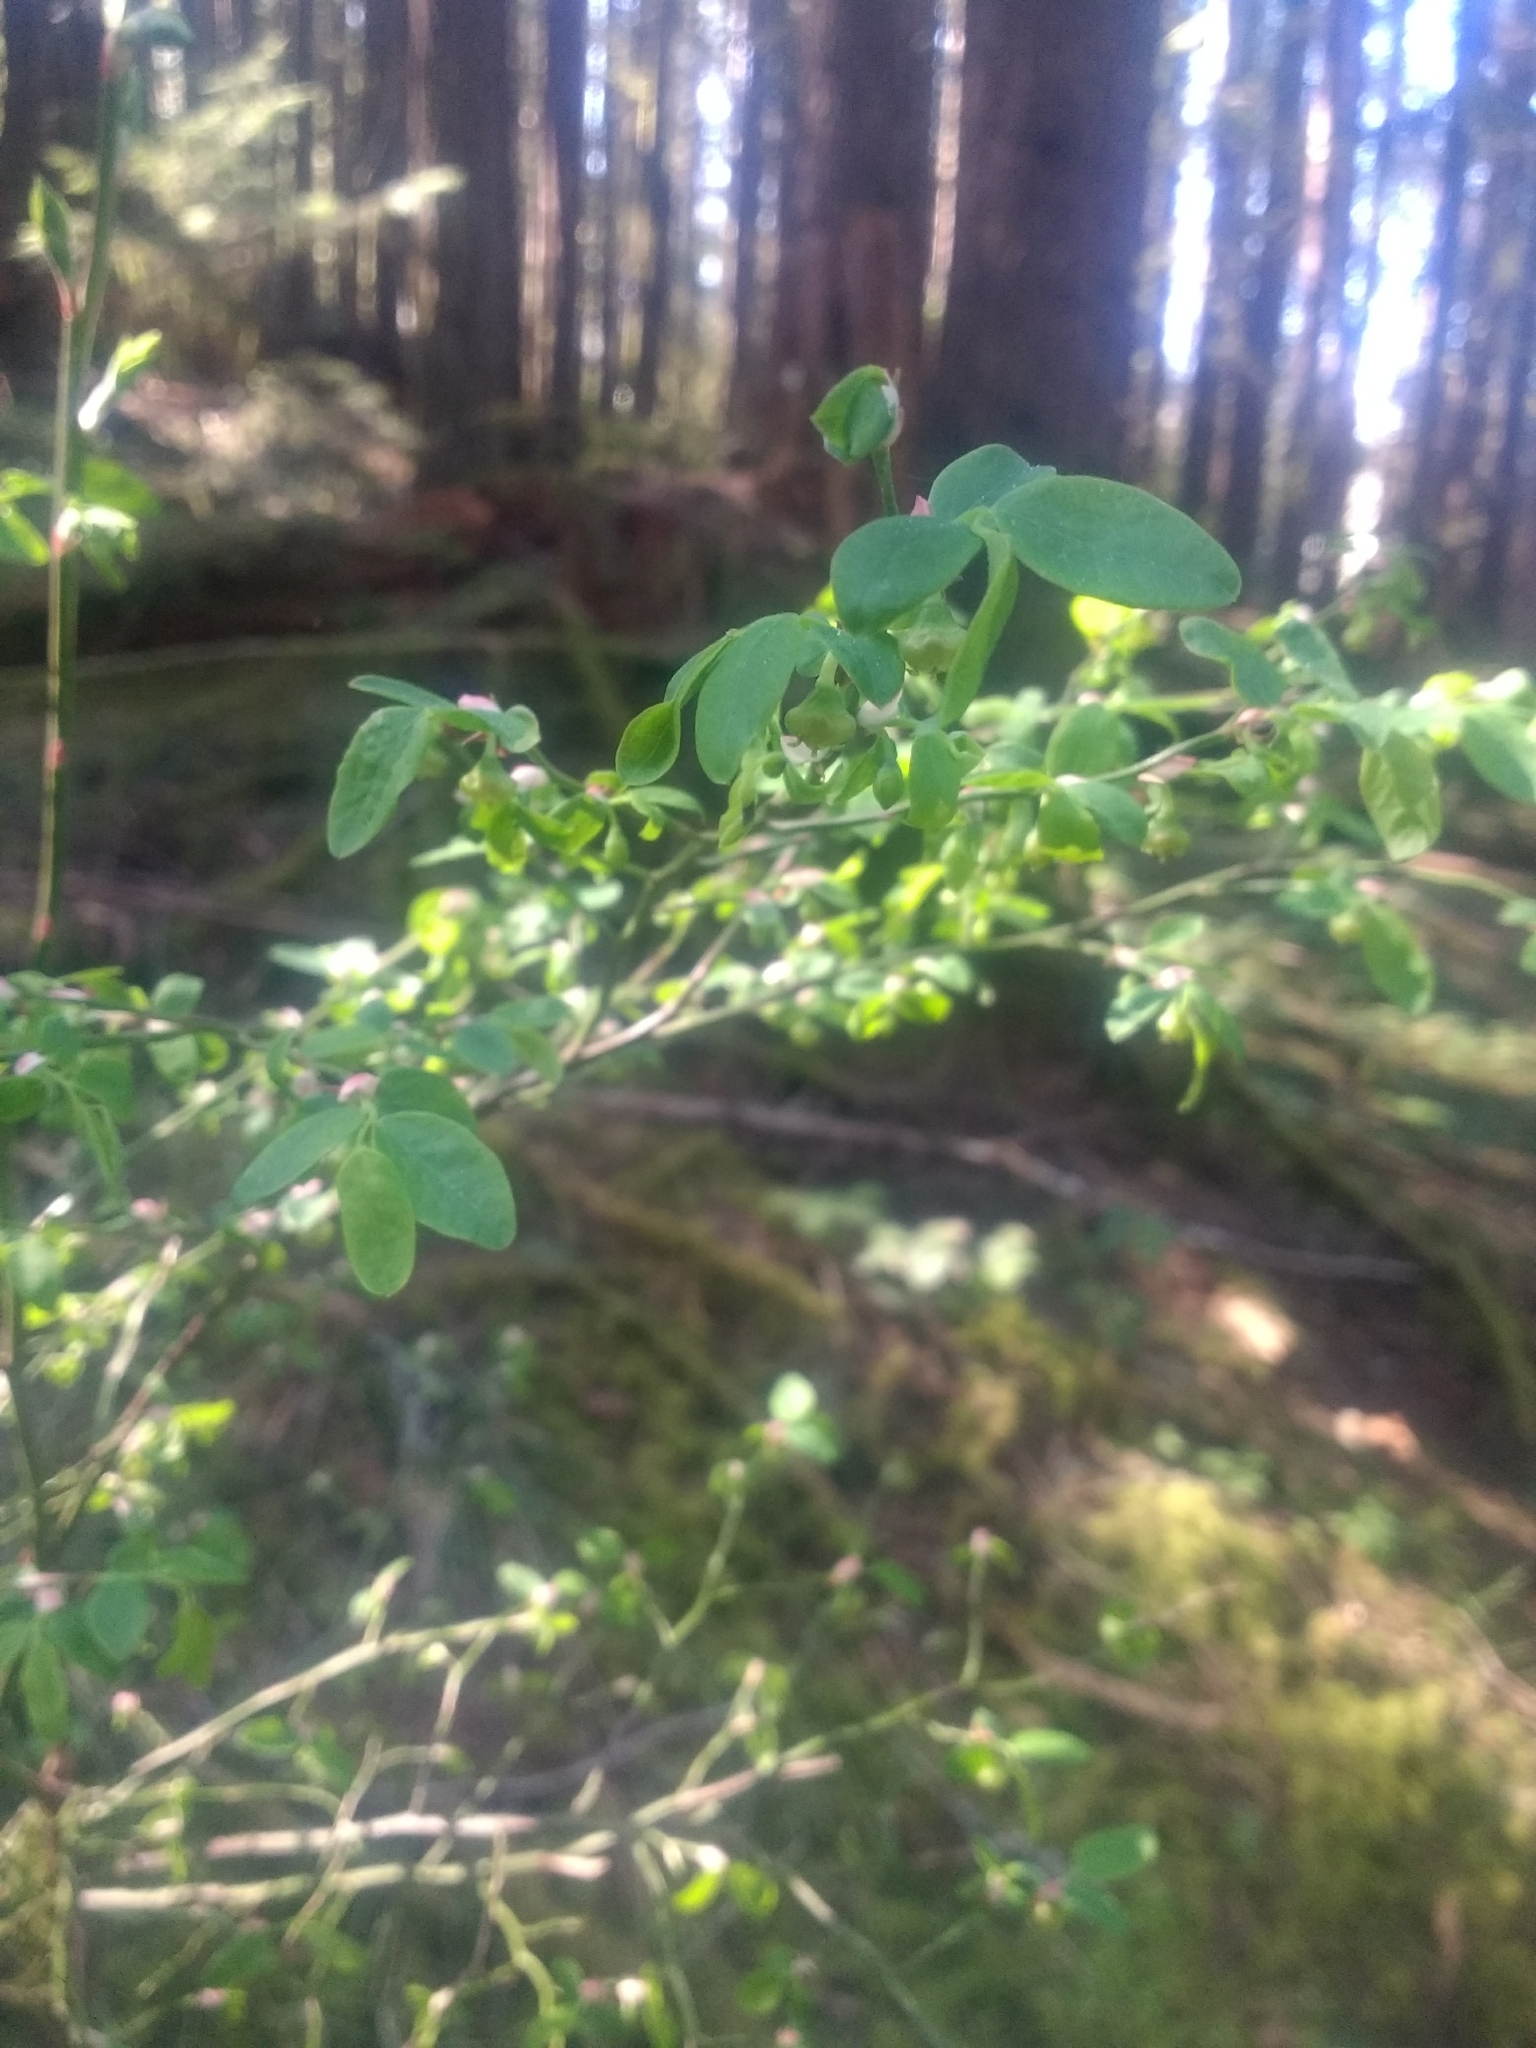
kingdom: Plantae
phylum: Tracheophyta
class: Magnoliopsida
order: Ericales
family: Ericaceae
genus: Vaccinium
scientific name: Vaccinium parvifolium
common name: Red-huckleberry
